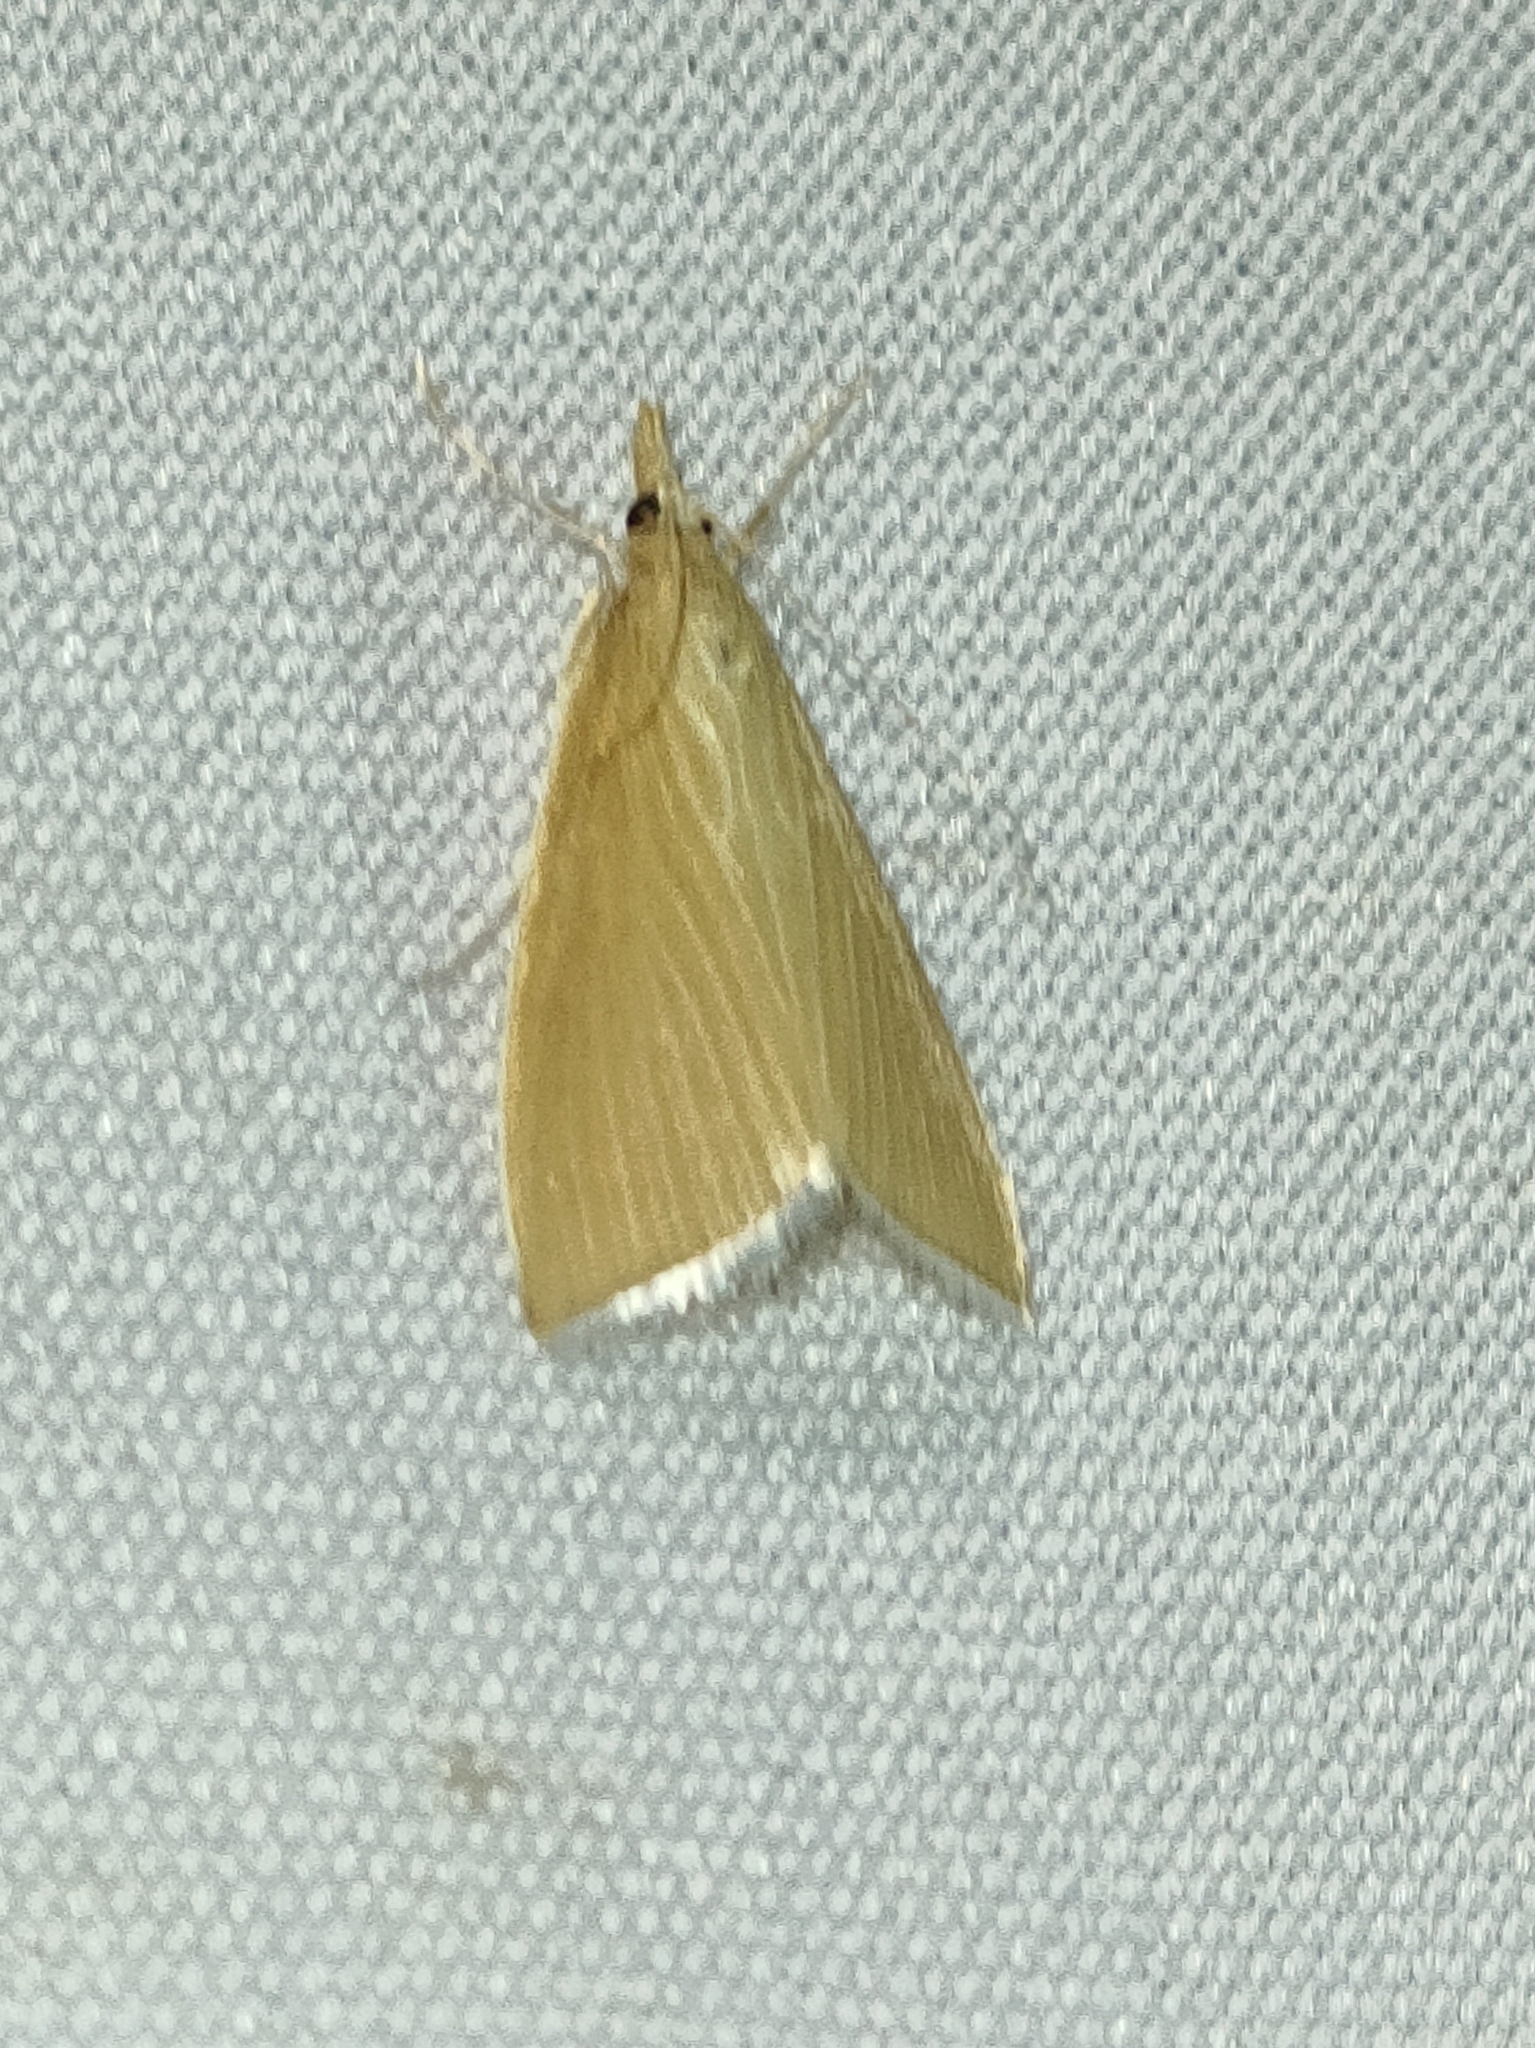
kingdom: Animalia
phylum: Arthropoda
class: Insecta
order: Lepidoptera
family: Crambidae
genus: Calamochrous
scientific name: Calamochrous Sclerocona acutella
